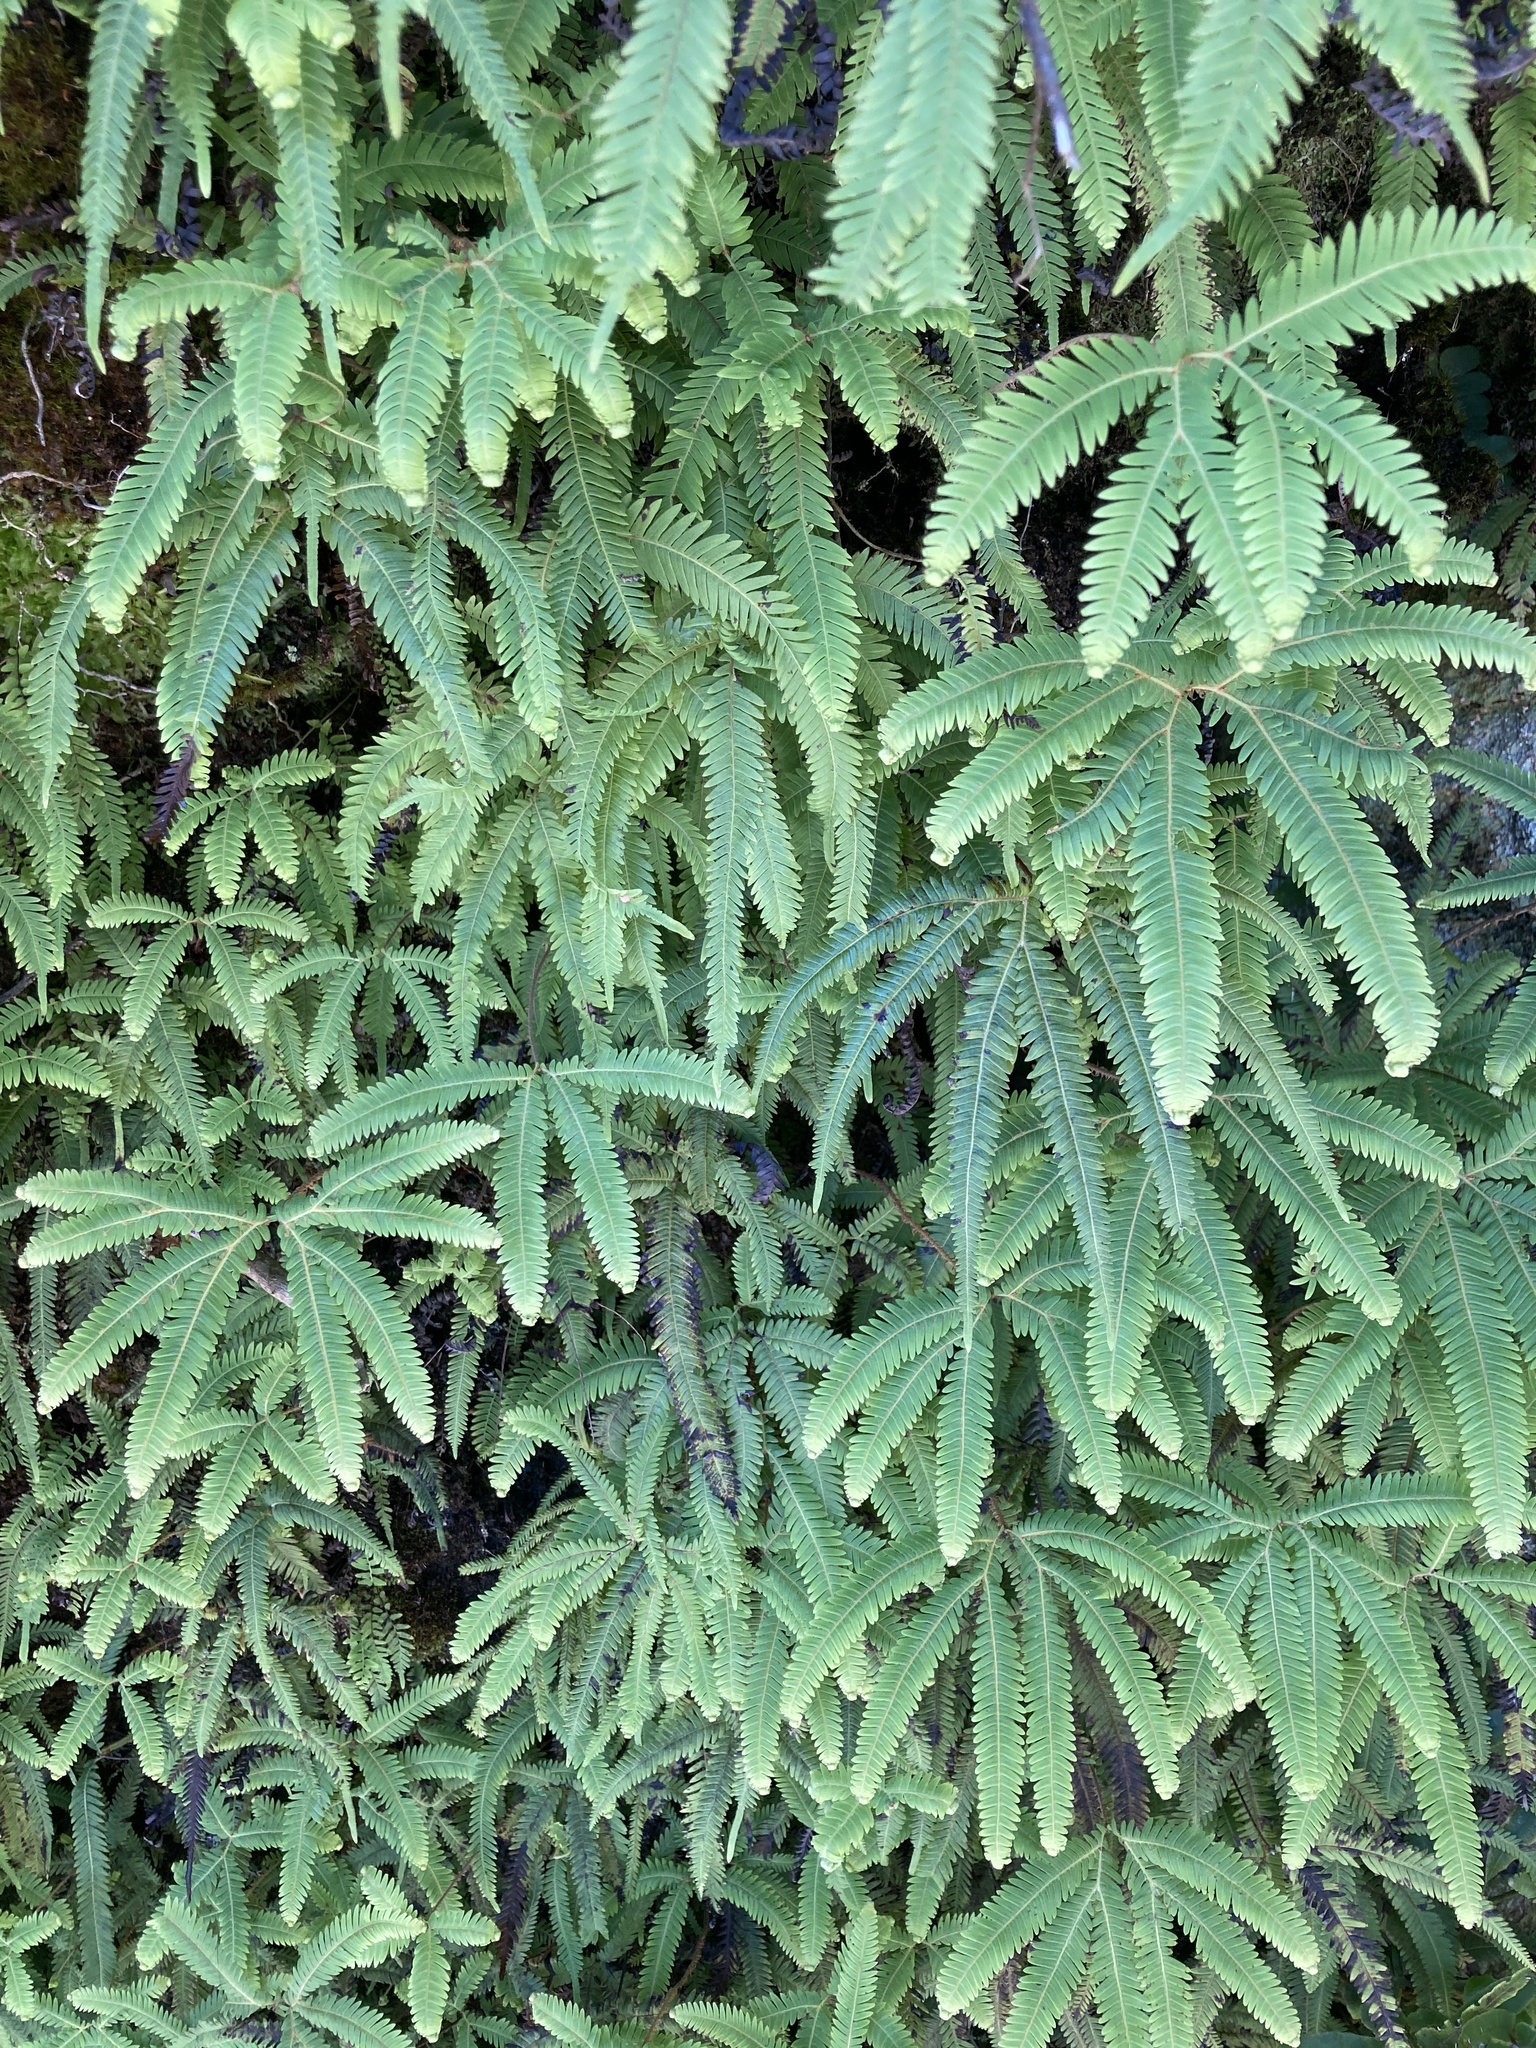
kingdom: Plantae
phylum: Tracheophyta
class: Polypodiopsida
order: Gleicheniales
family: Gleicheniaceae
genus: Sticherus
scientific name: Sticherus cunninghamii
